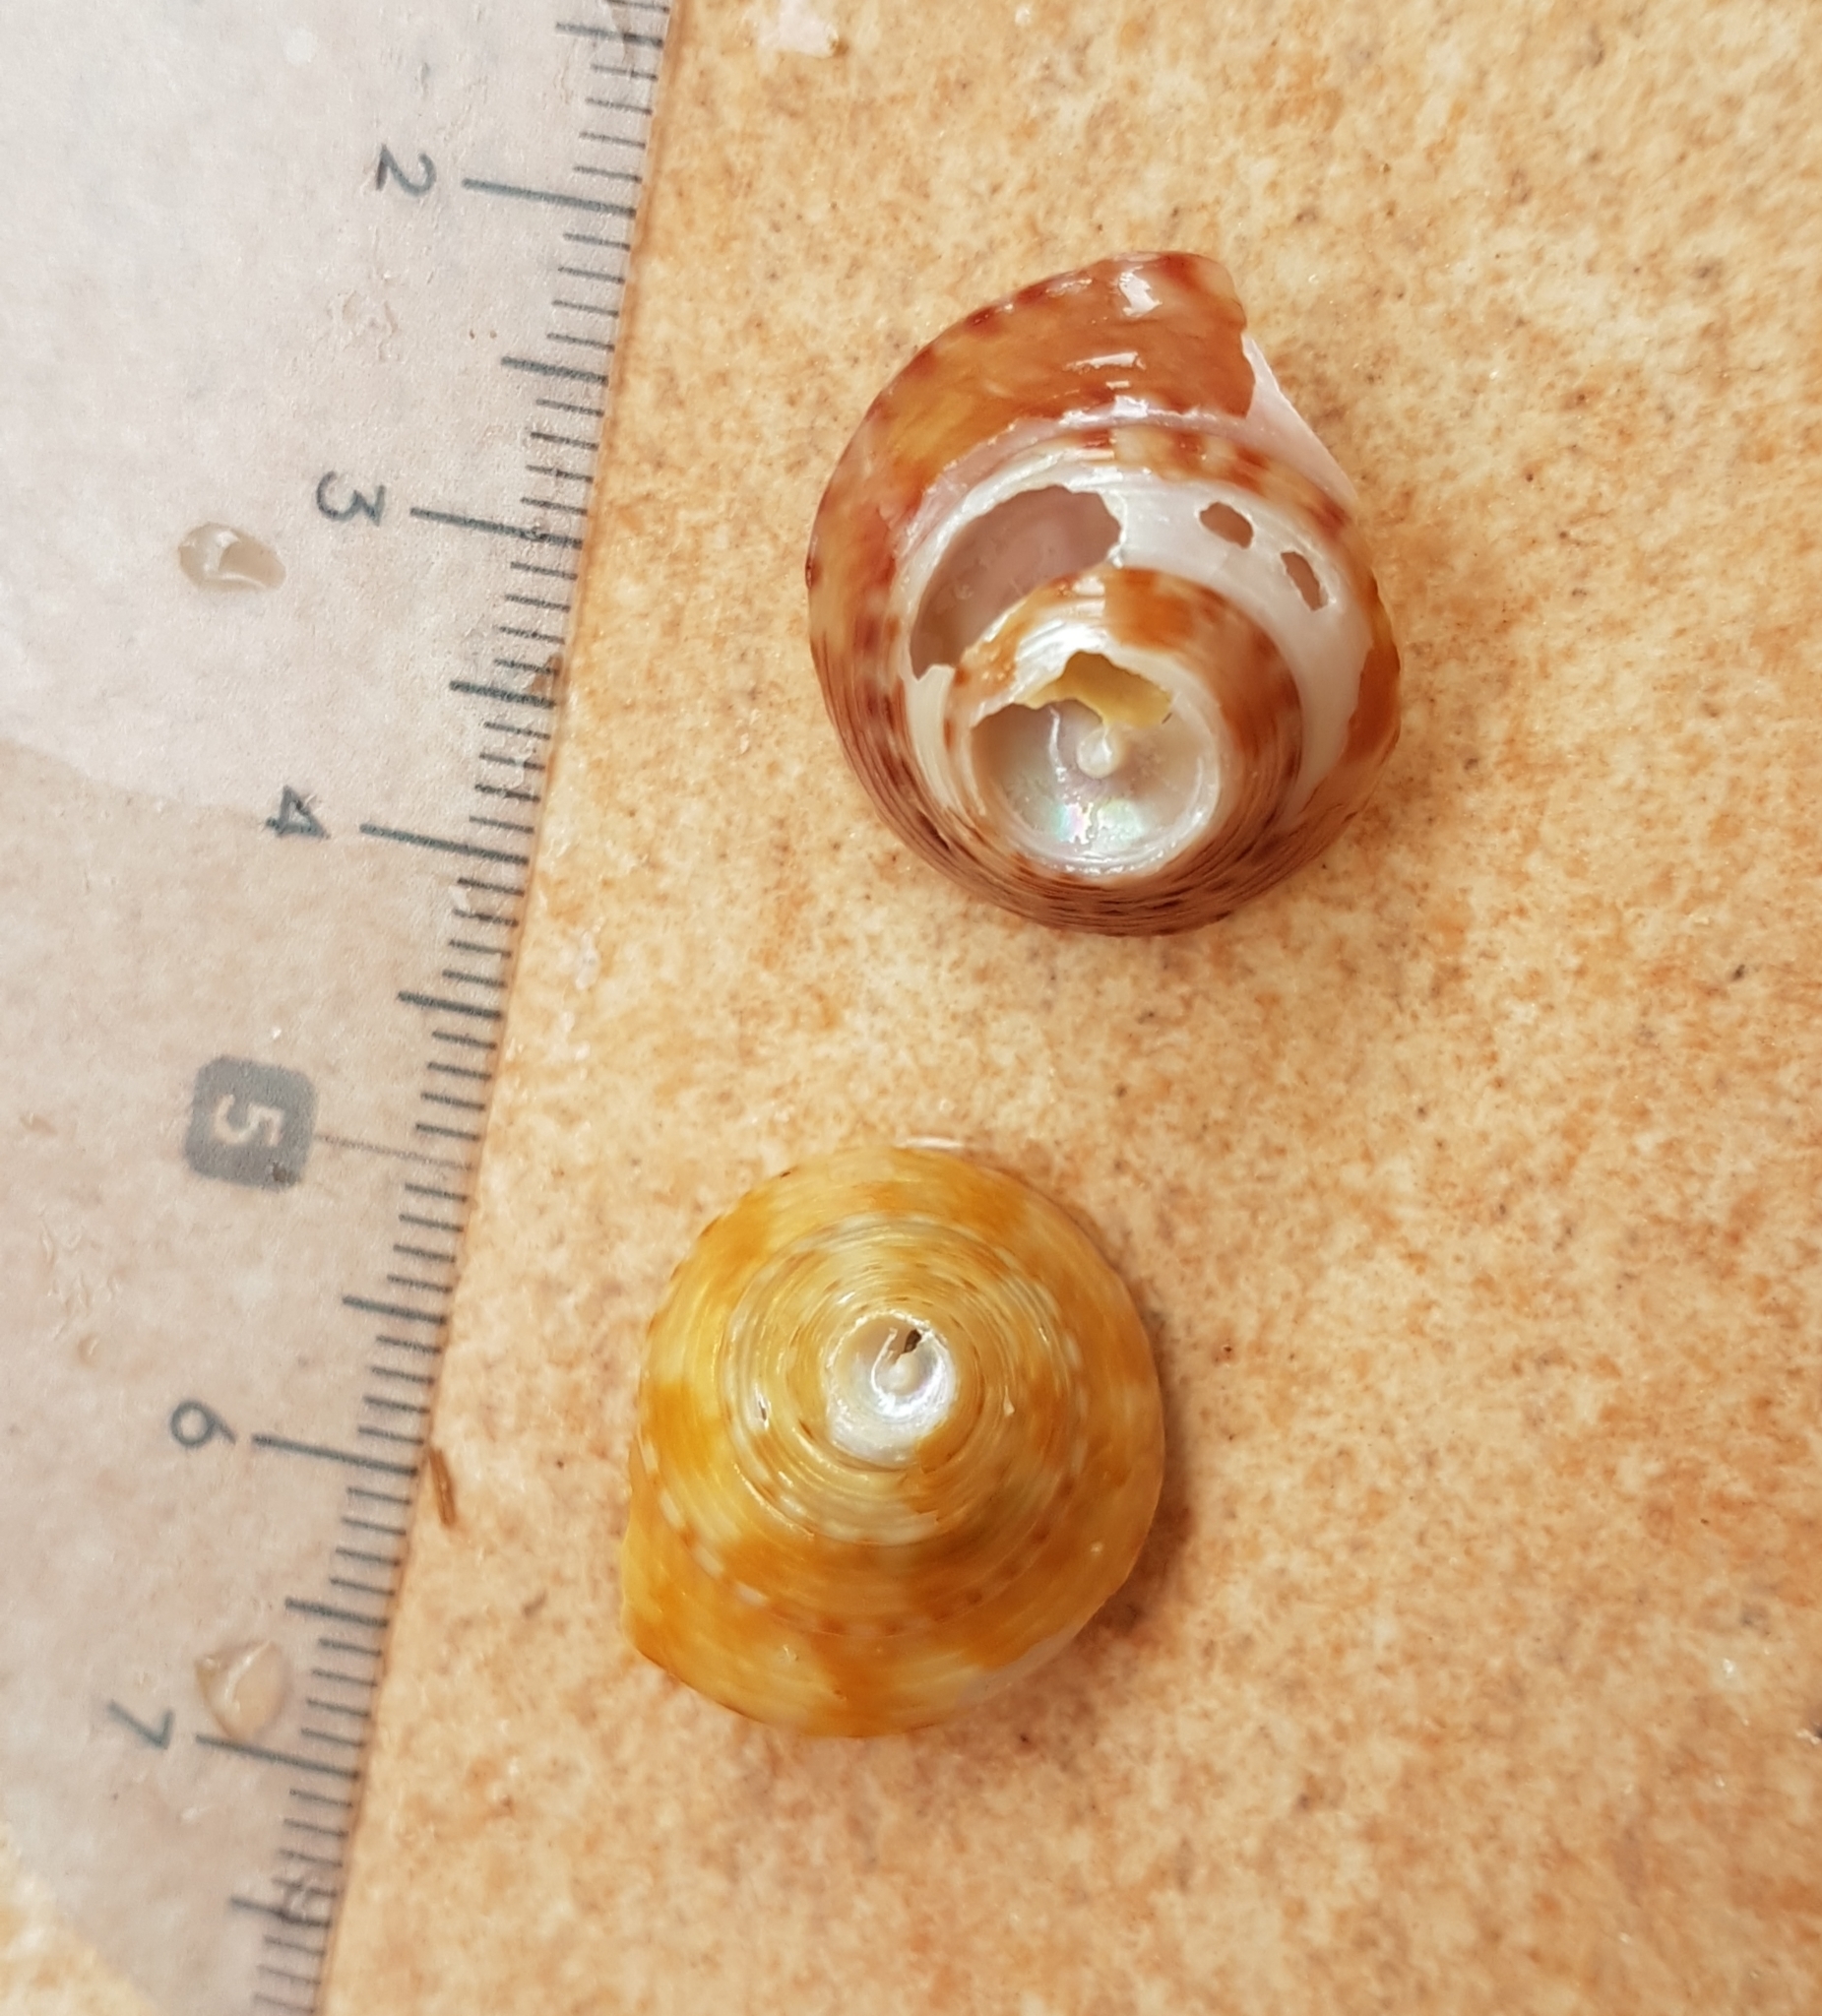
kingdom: Animalia
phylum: Mollusca
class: Gastropoda
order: Trochida
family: Calliostomatidae
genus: Calliostoma
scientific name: Calliostoma zizyphinum
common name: Painted top shell
